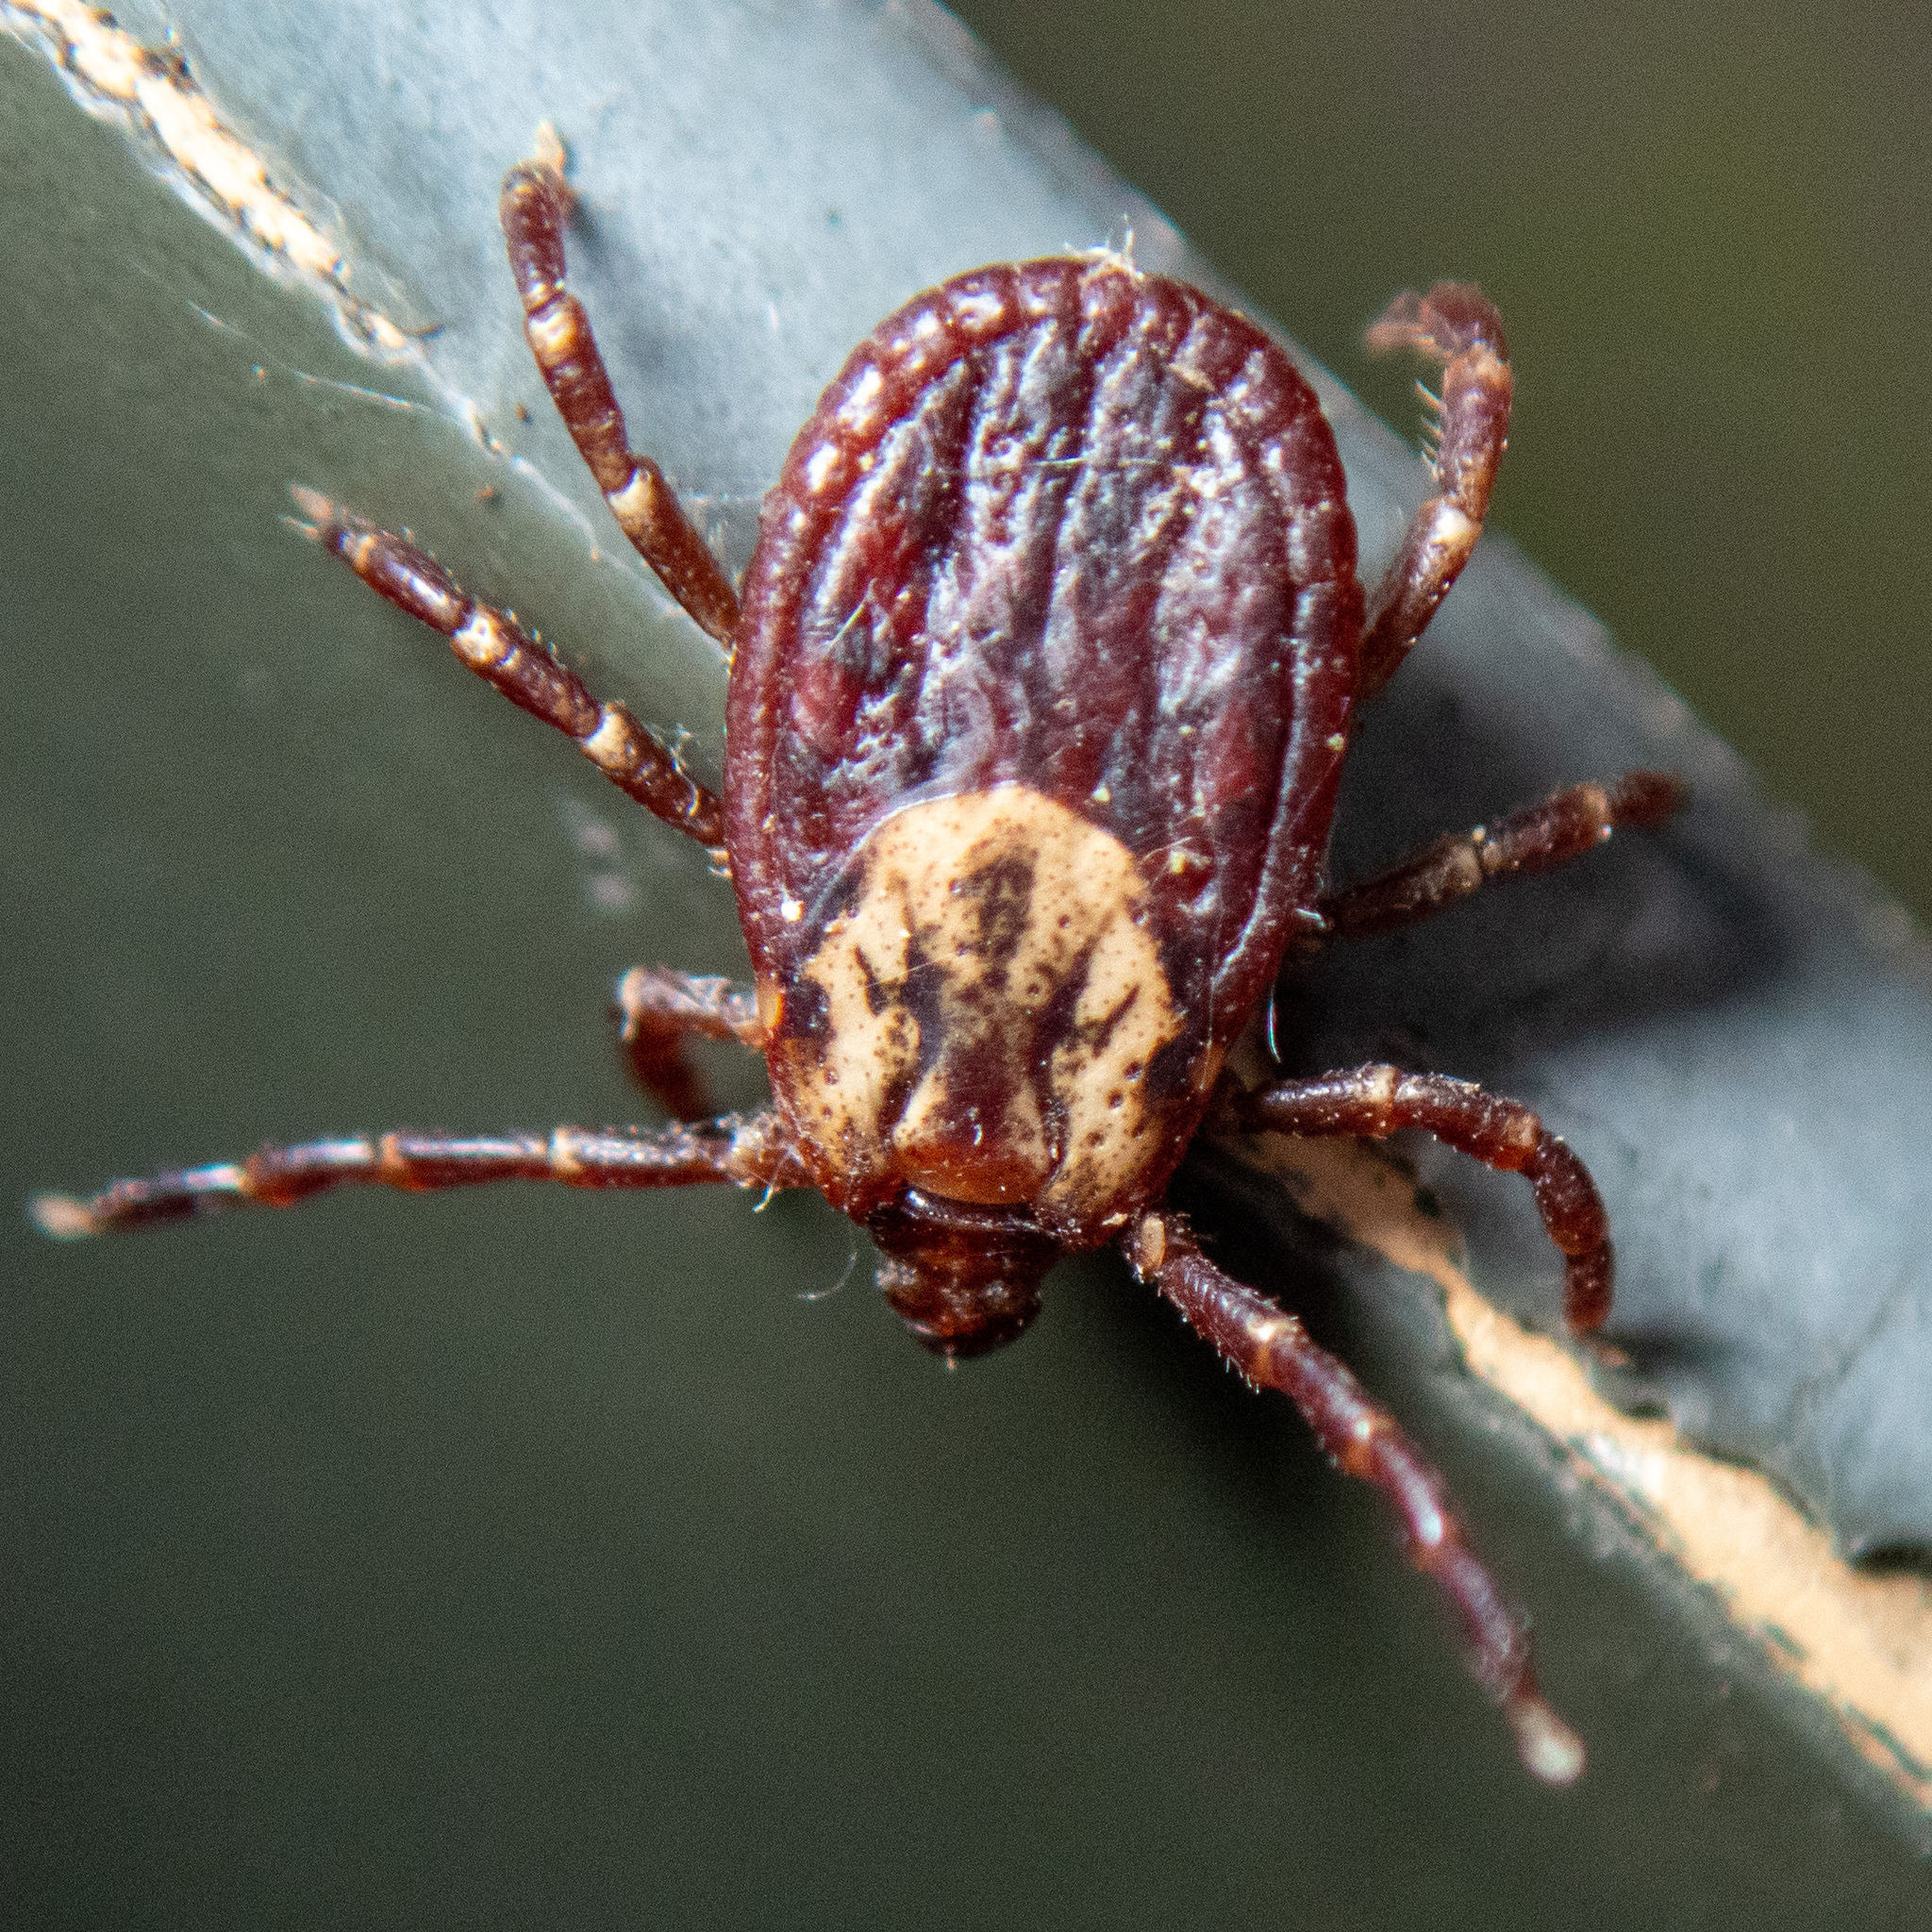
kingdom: Animalia
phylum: Arthropoda
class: Arachnida
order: Ixodida
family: Ixodidae
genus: Dermacentor
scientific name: Dermacentor variabilis
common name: American dog tick
